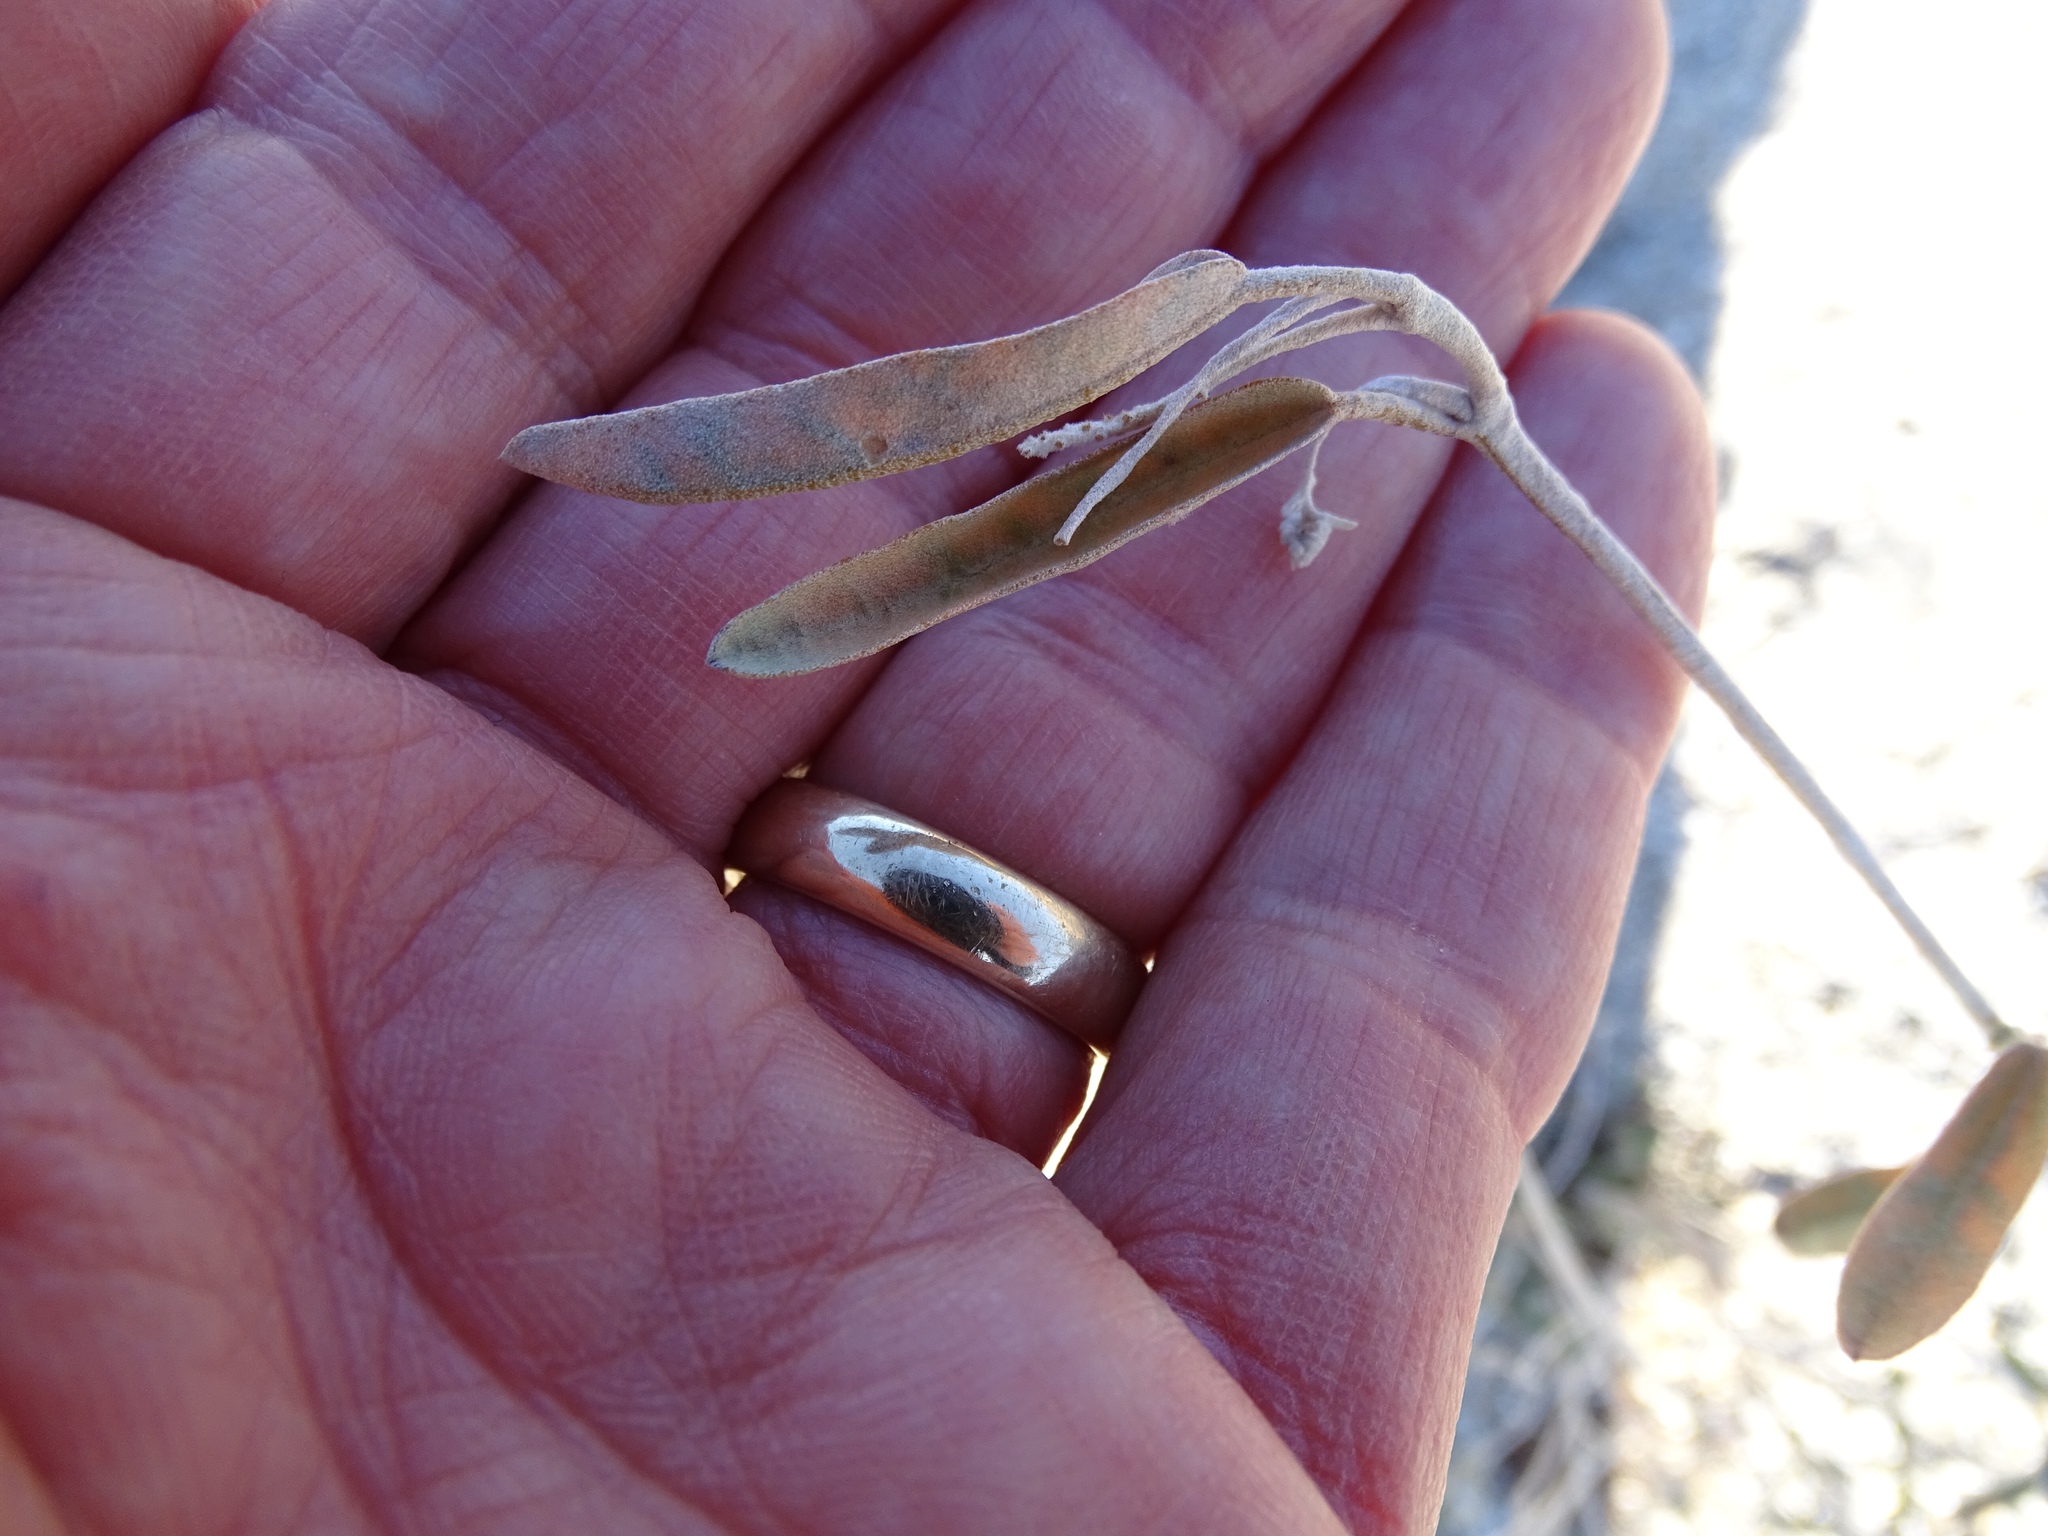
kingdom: Plantae
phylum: Tracheophyta
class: Magnoliopsida
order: Malpighiales
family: Euphorbiaceae
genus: Croton
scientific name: Croton californicus
